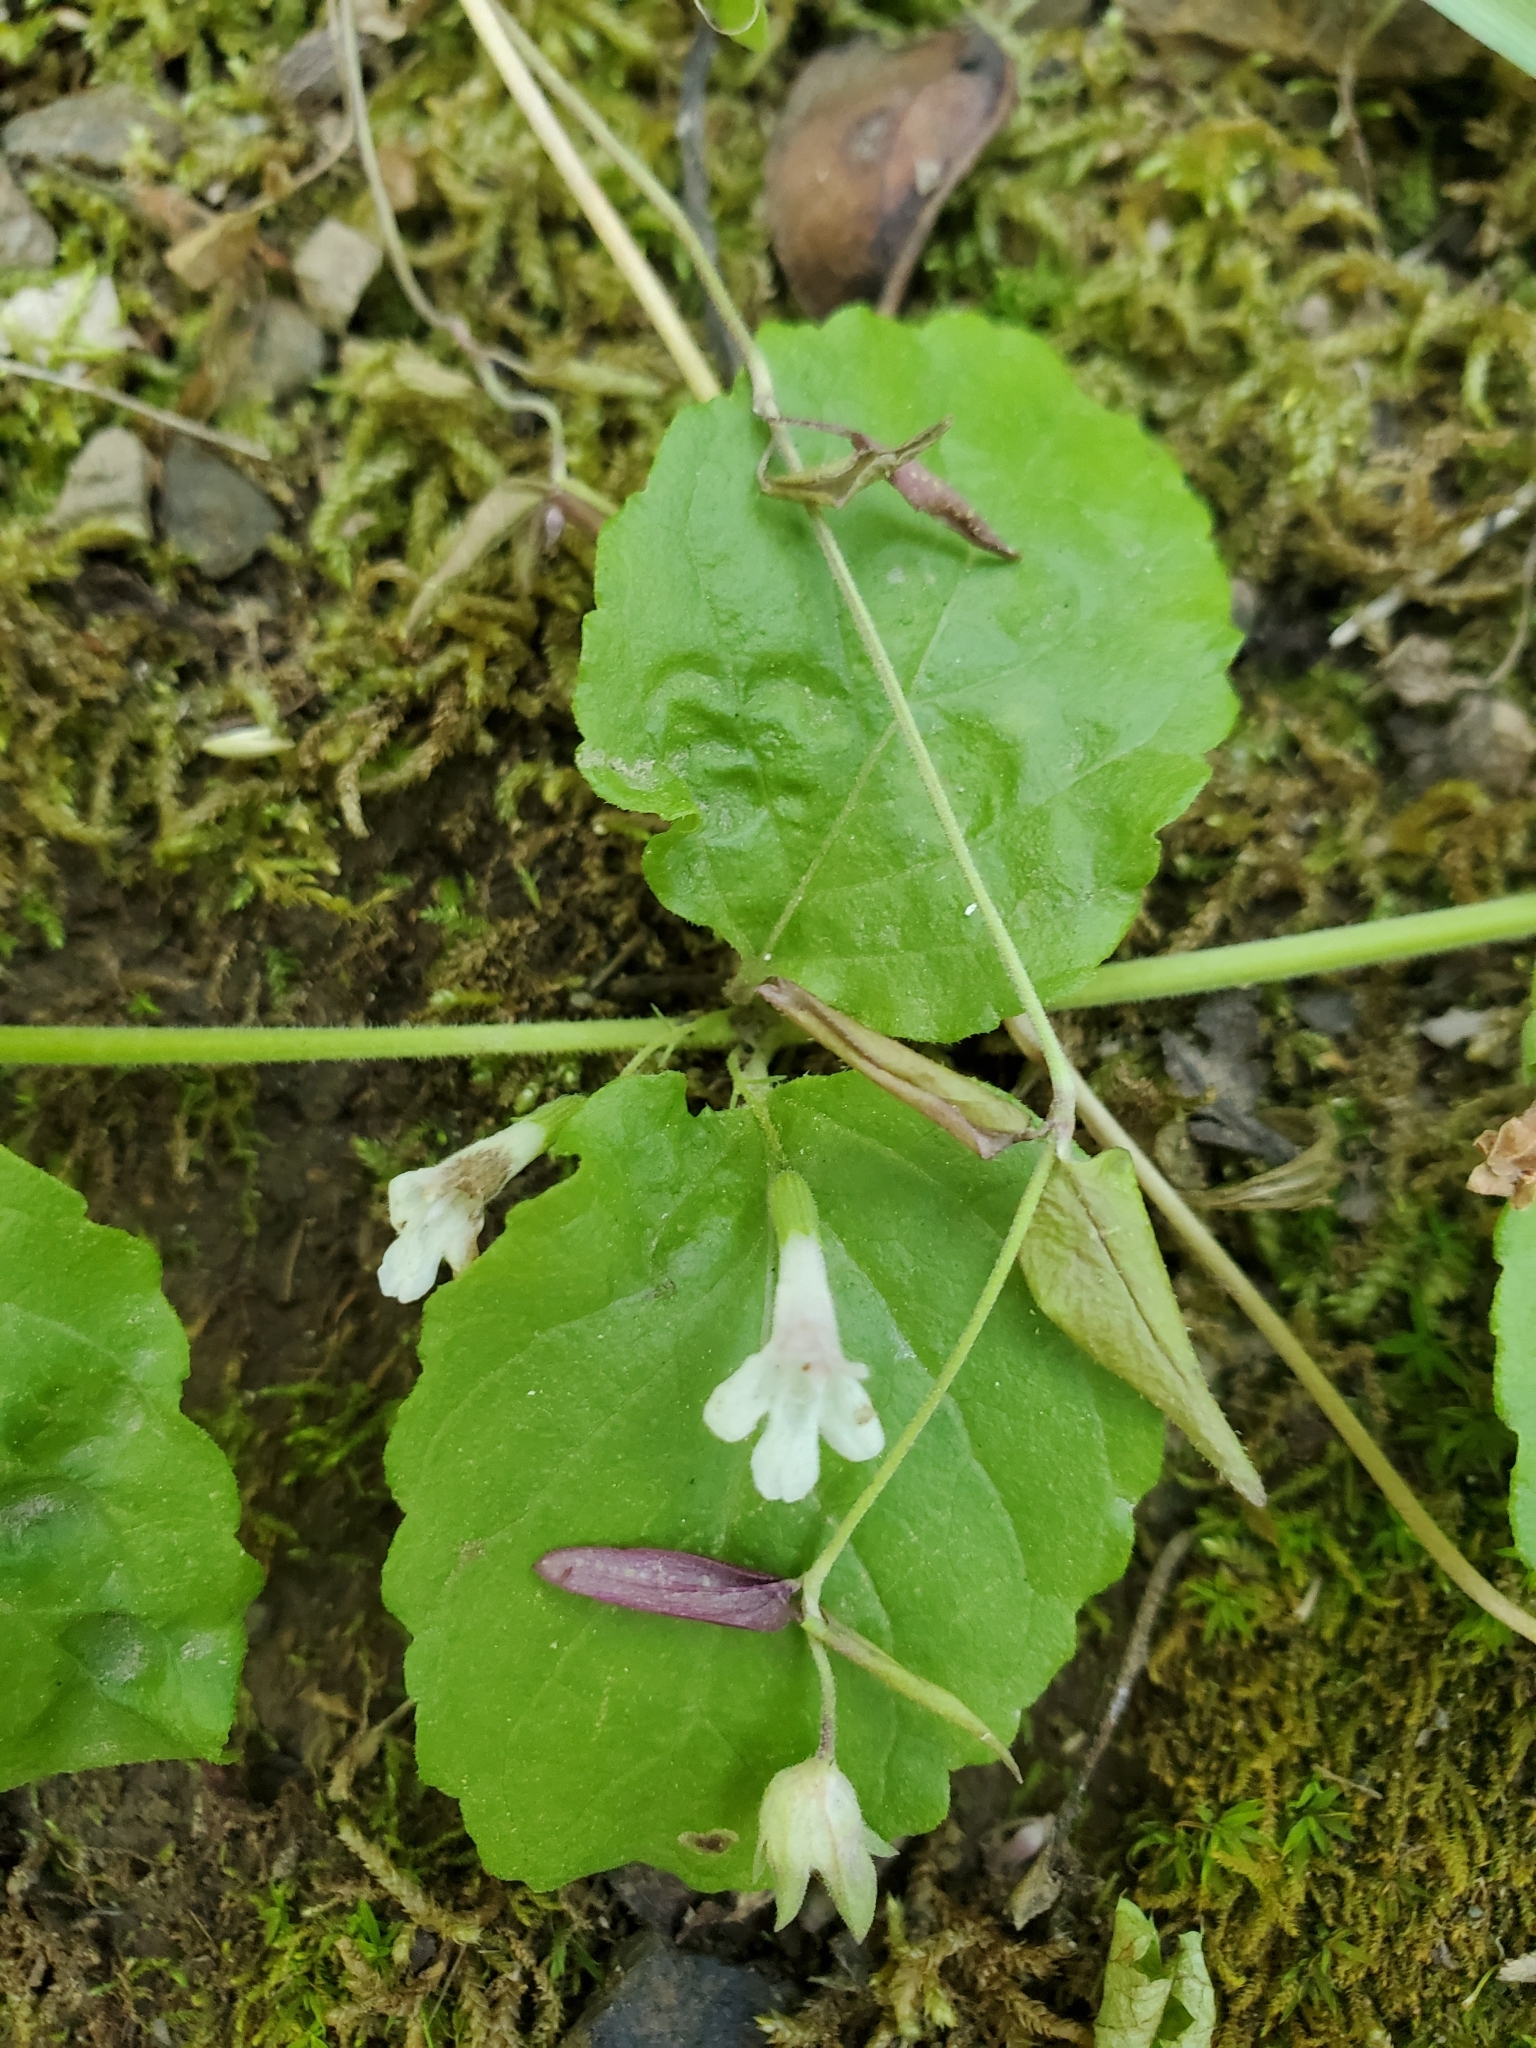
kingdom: Plantae
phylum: Tracheophyta
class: Magnoliopsida
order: Lamiales
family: Lamiaceae
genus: Micromeria
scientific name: Micromeria douglasii
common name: Yerba buena
